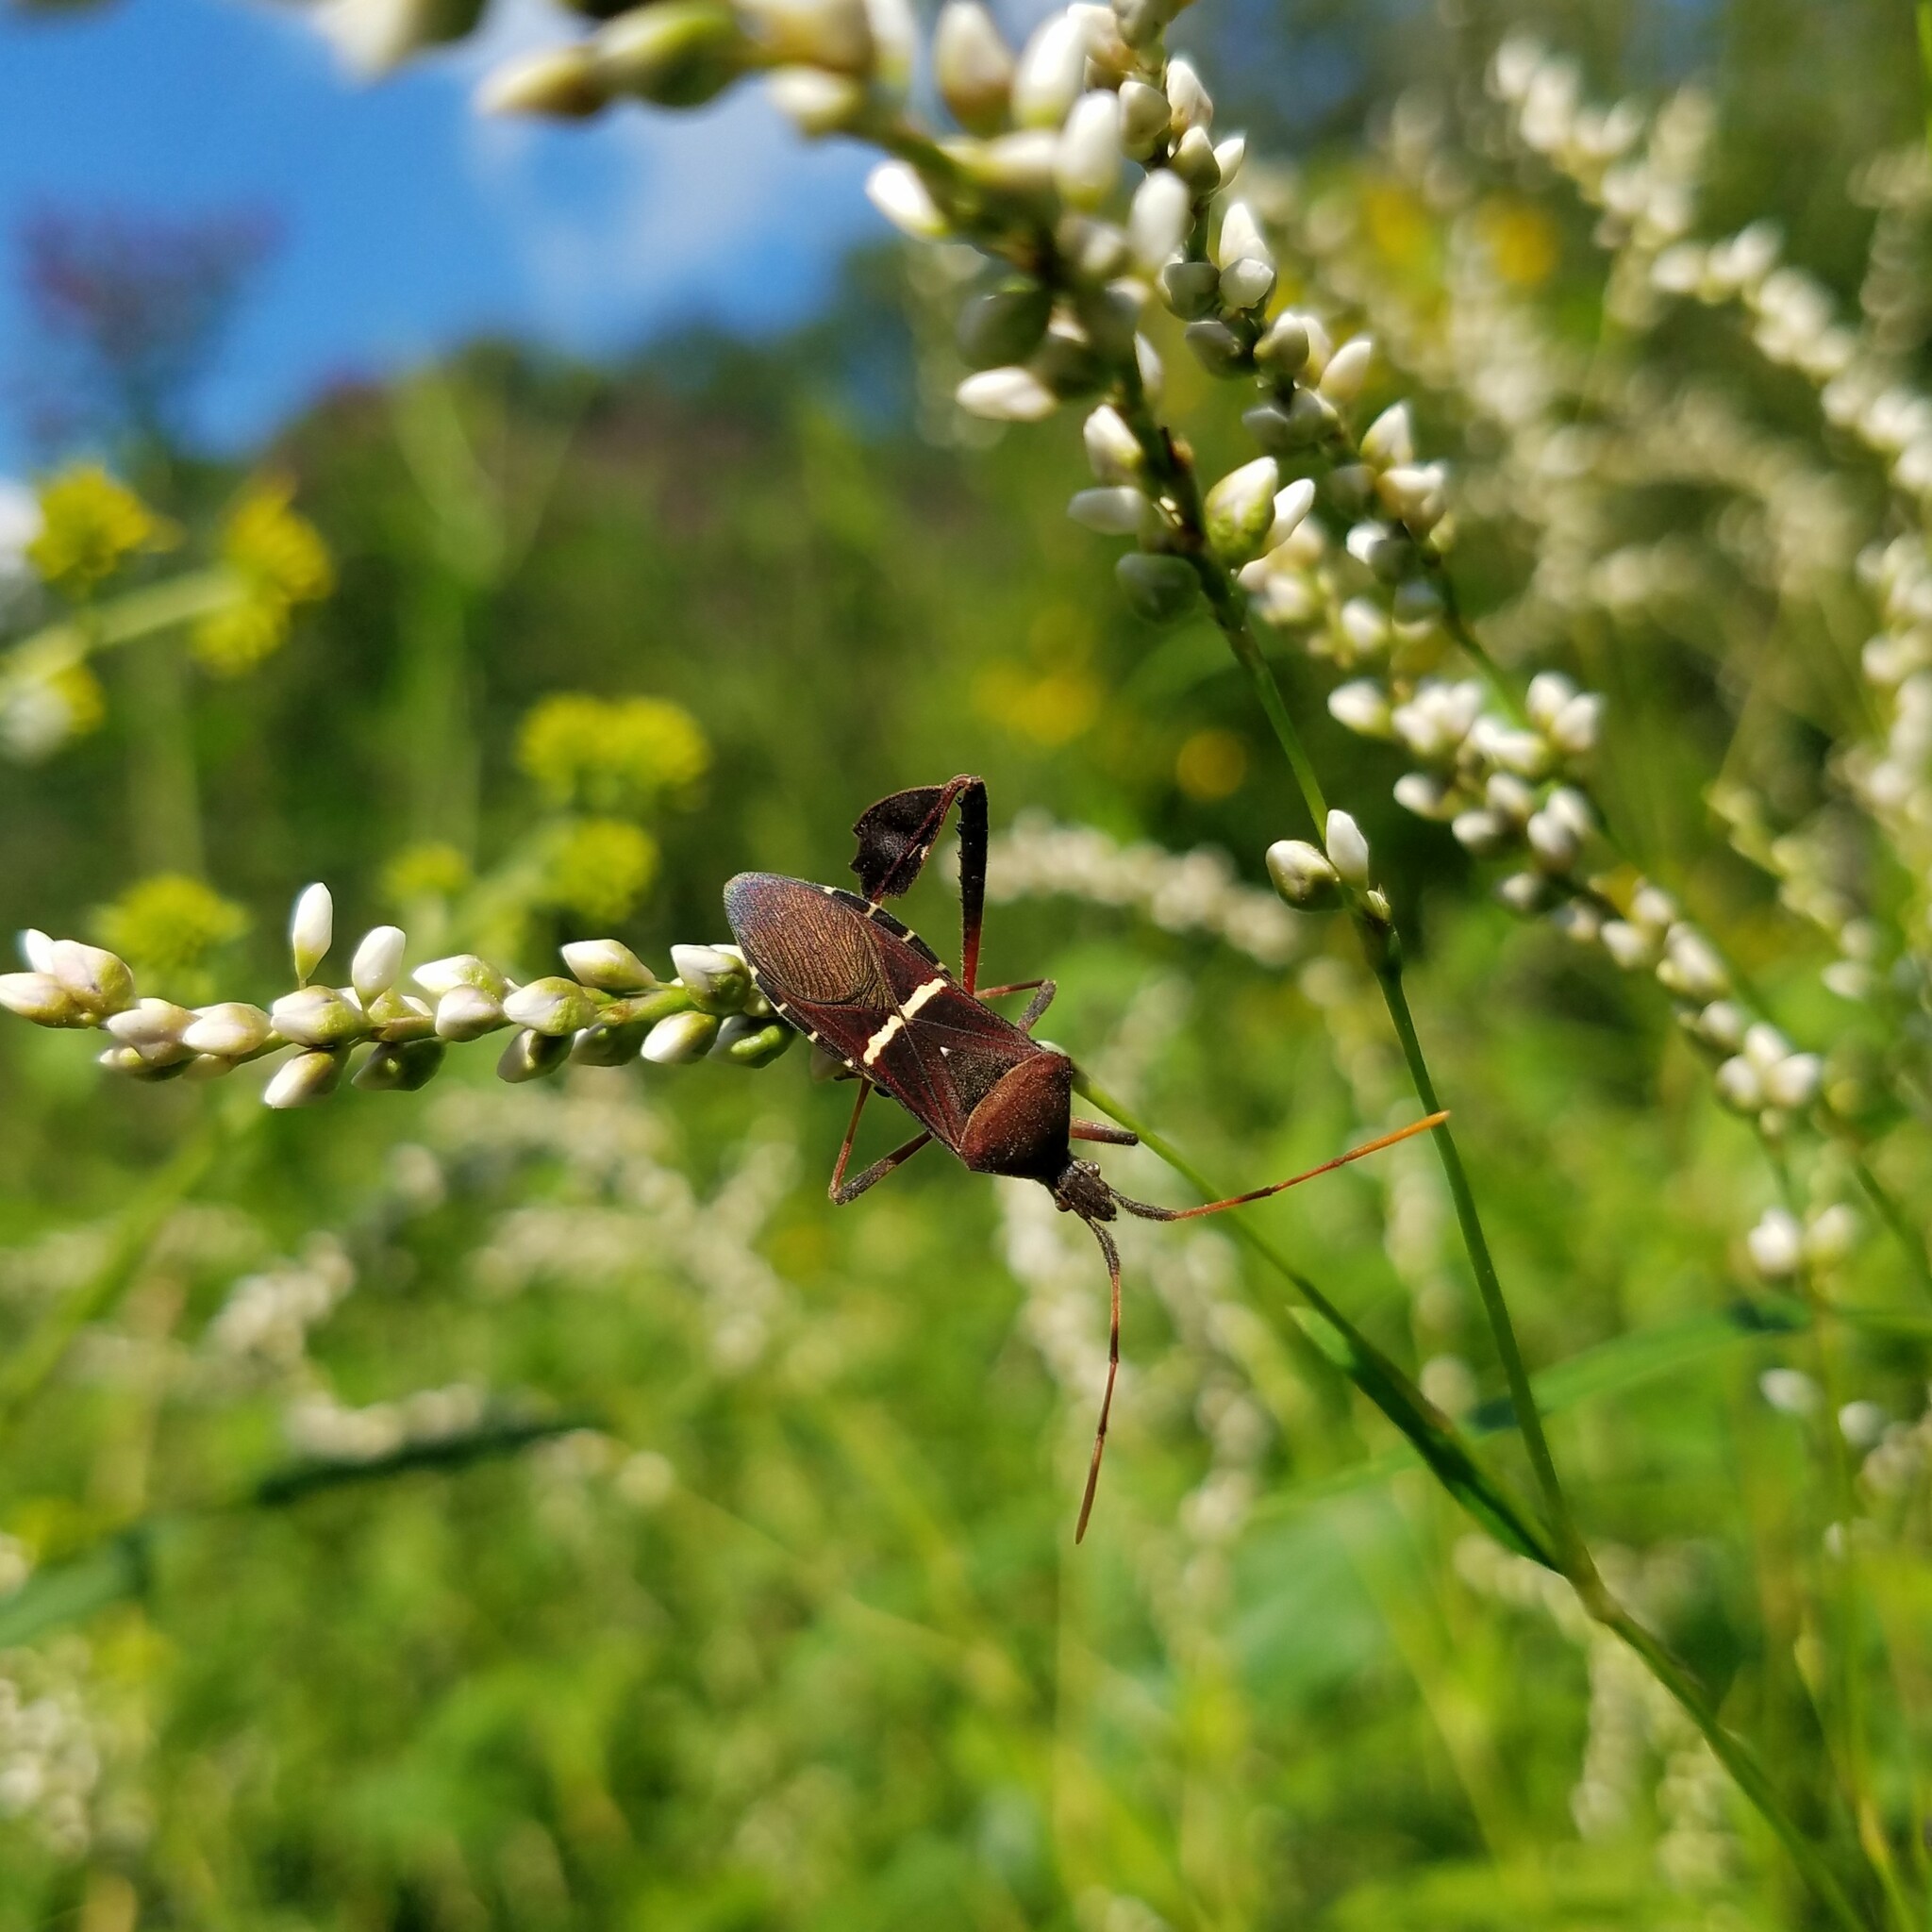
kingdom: Animalia
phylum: Arthropoda
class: Insecta
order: Hemiptera
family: Coreidae
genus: Leptoglossus
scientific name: Leptoglossus phyllopus
